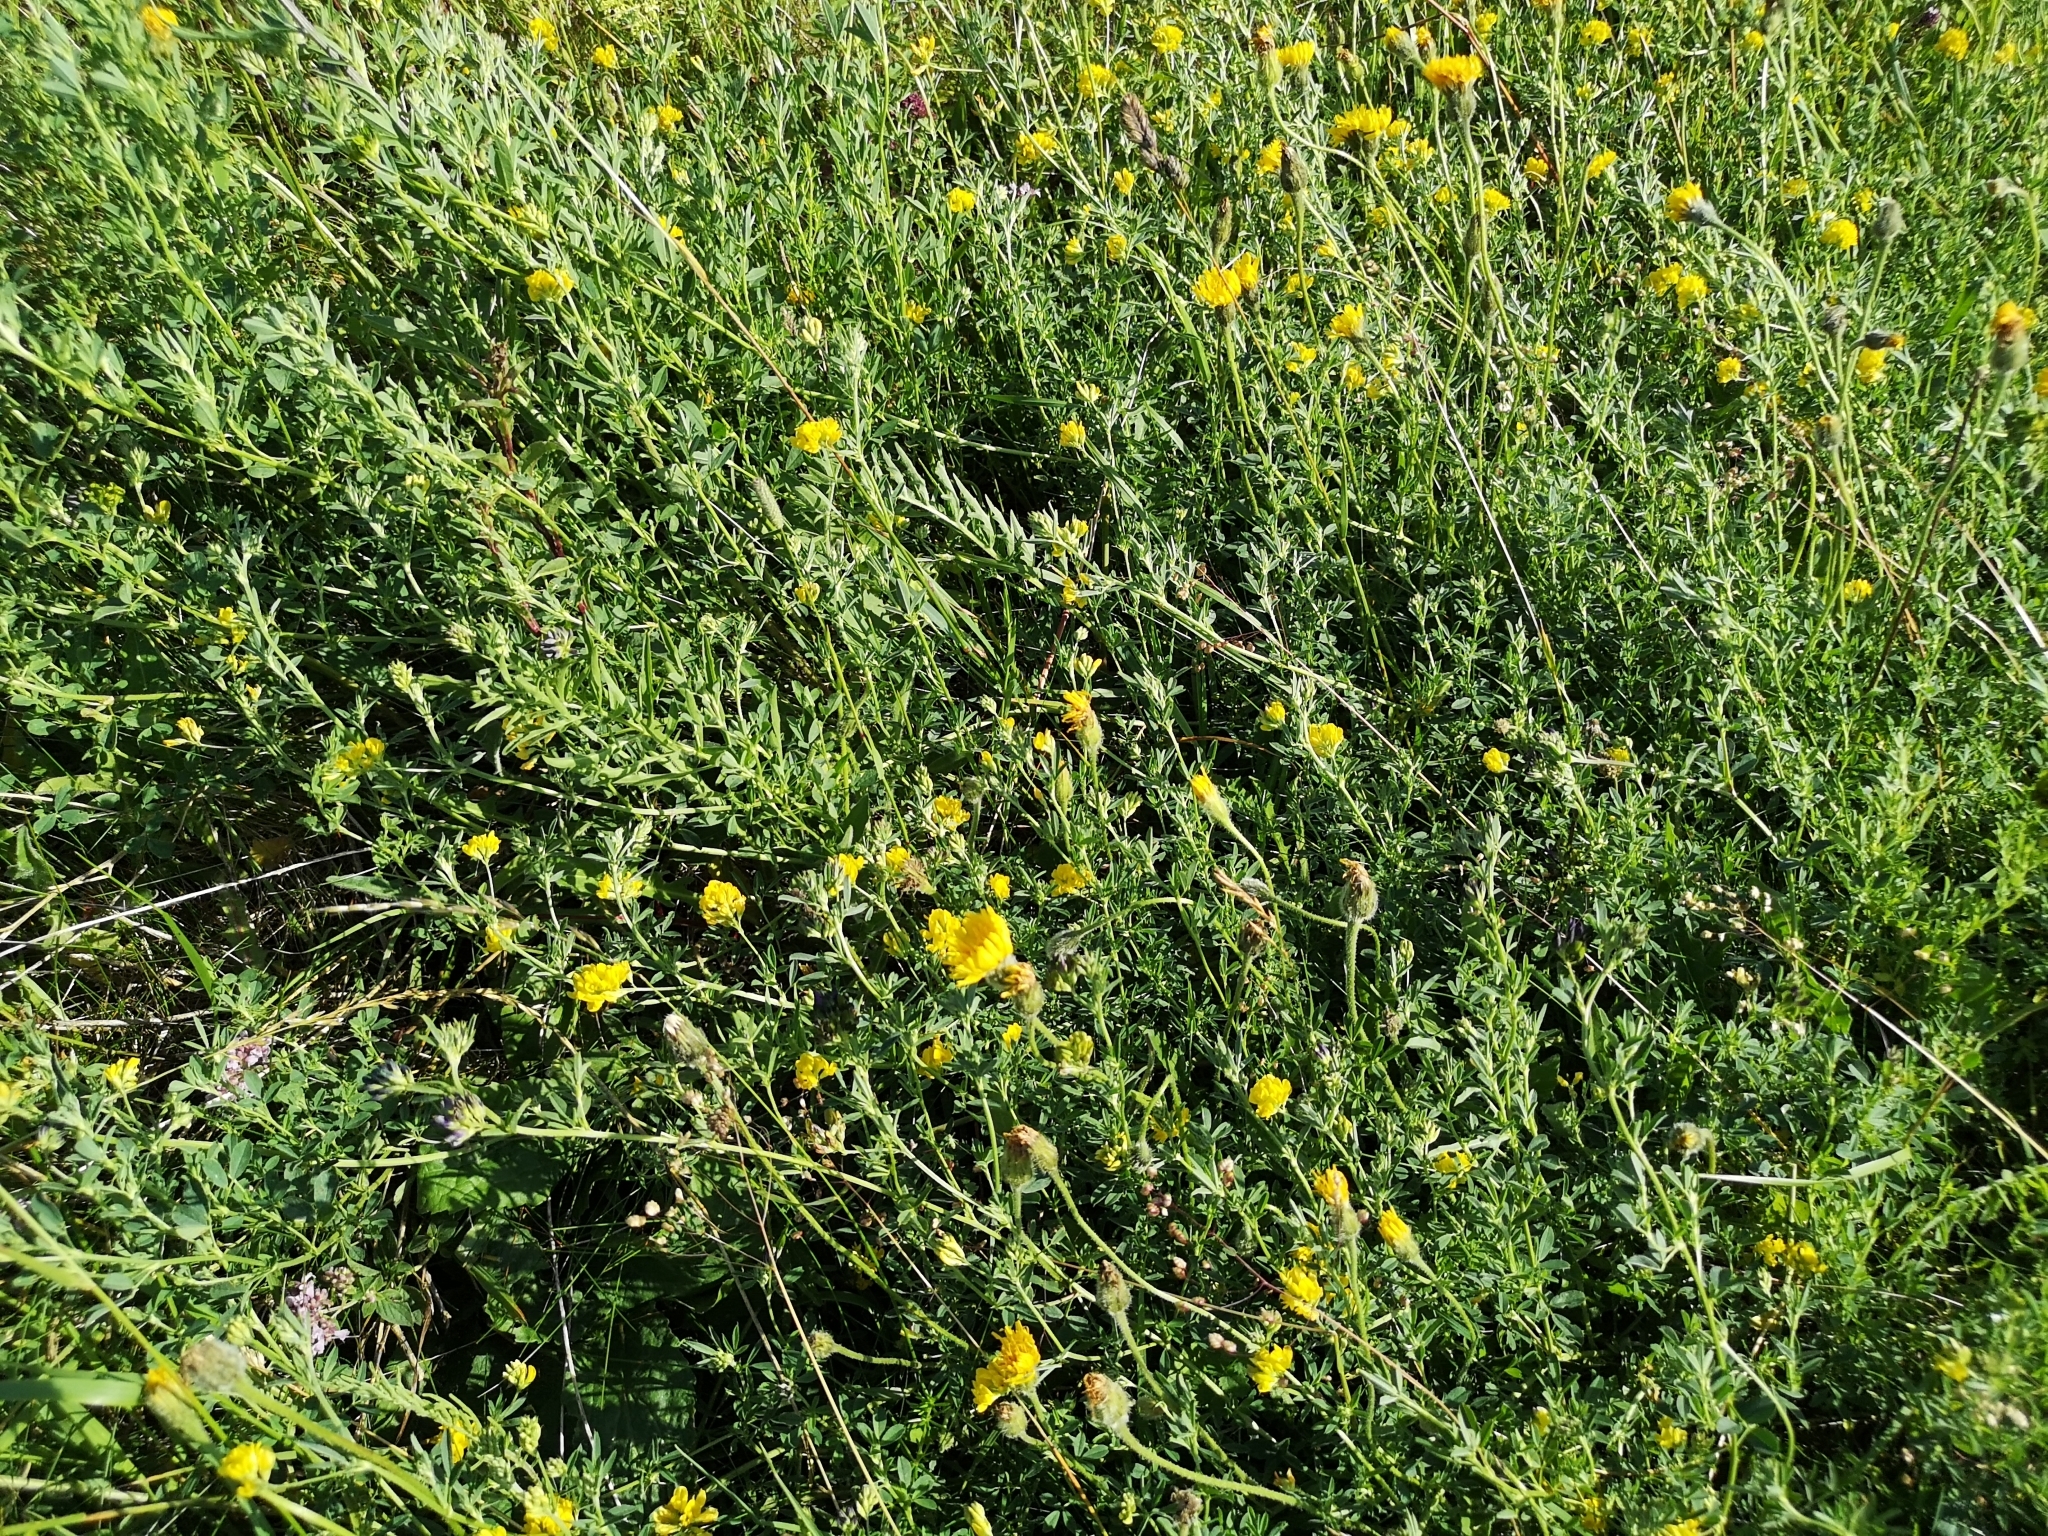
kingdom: Plantae
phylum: Tracheophyta
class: Magnoliopsida
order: Fabales
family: Fabaceae
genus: Medicago
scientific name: Medicago falcata
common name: Sickle medick
